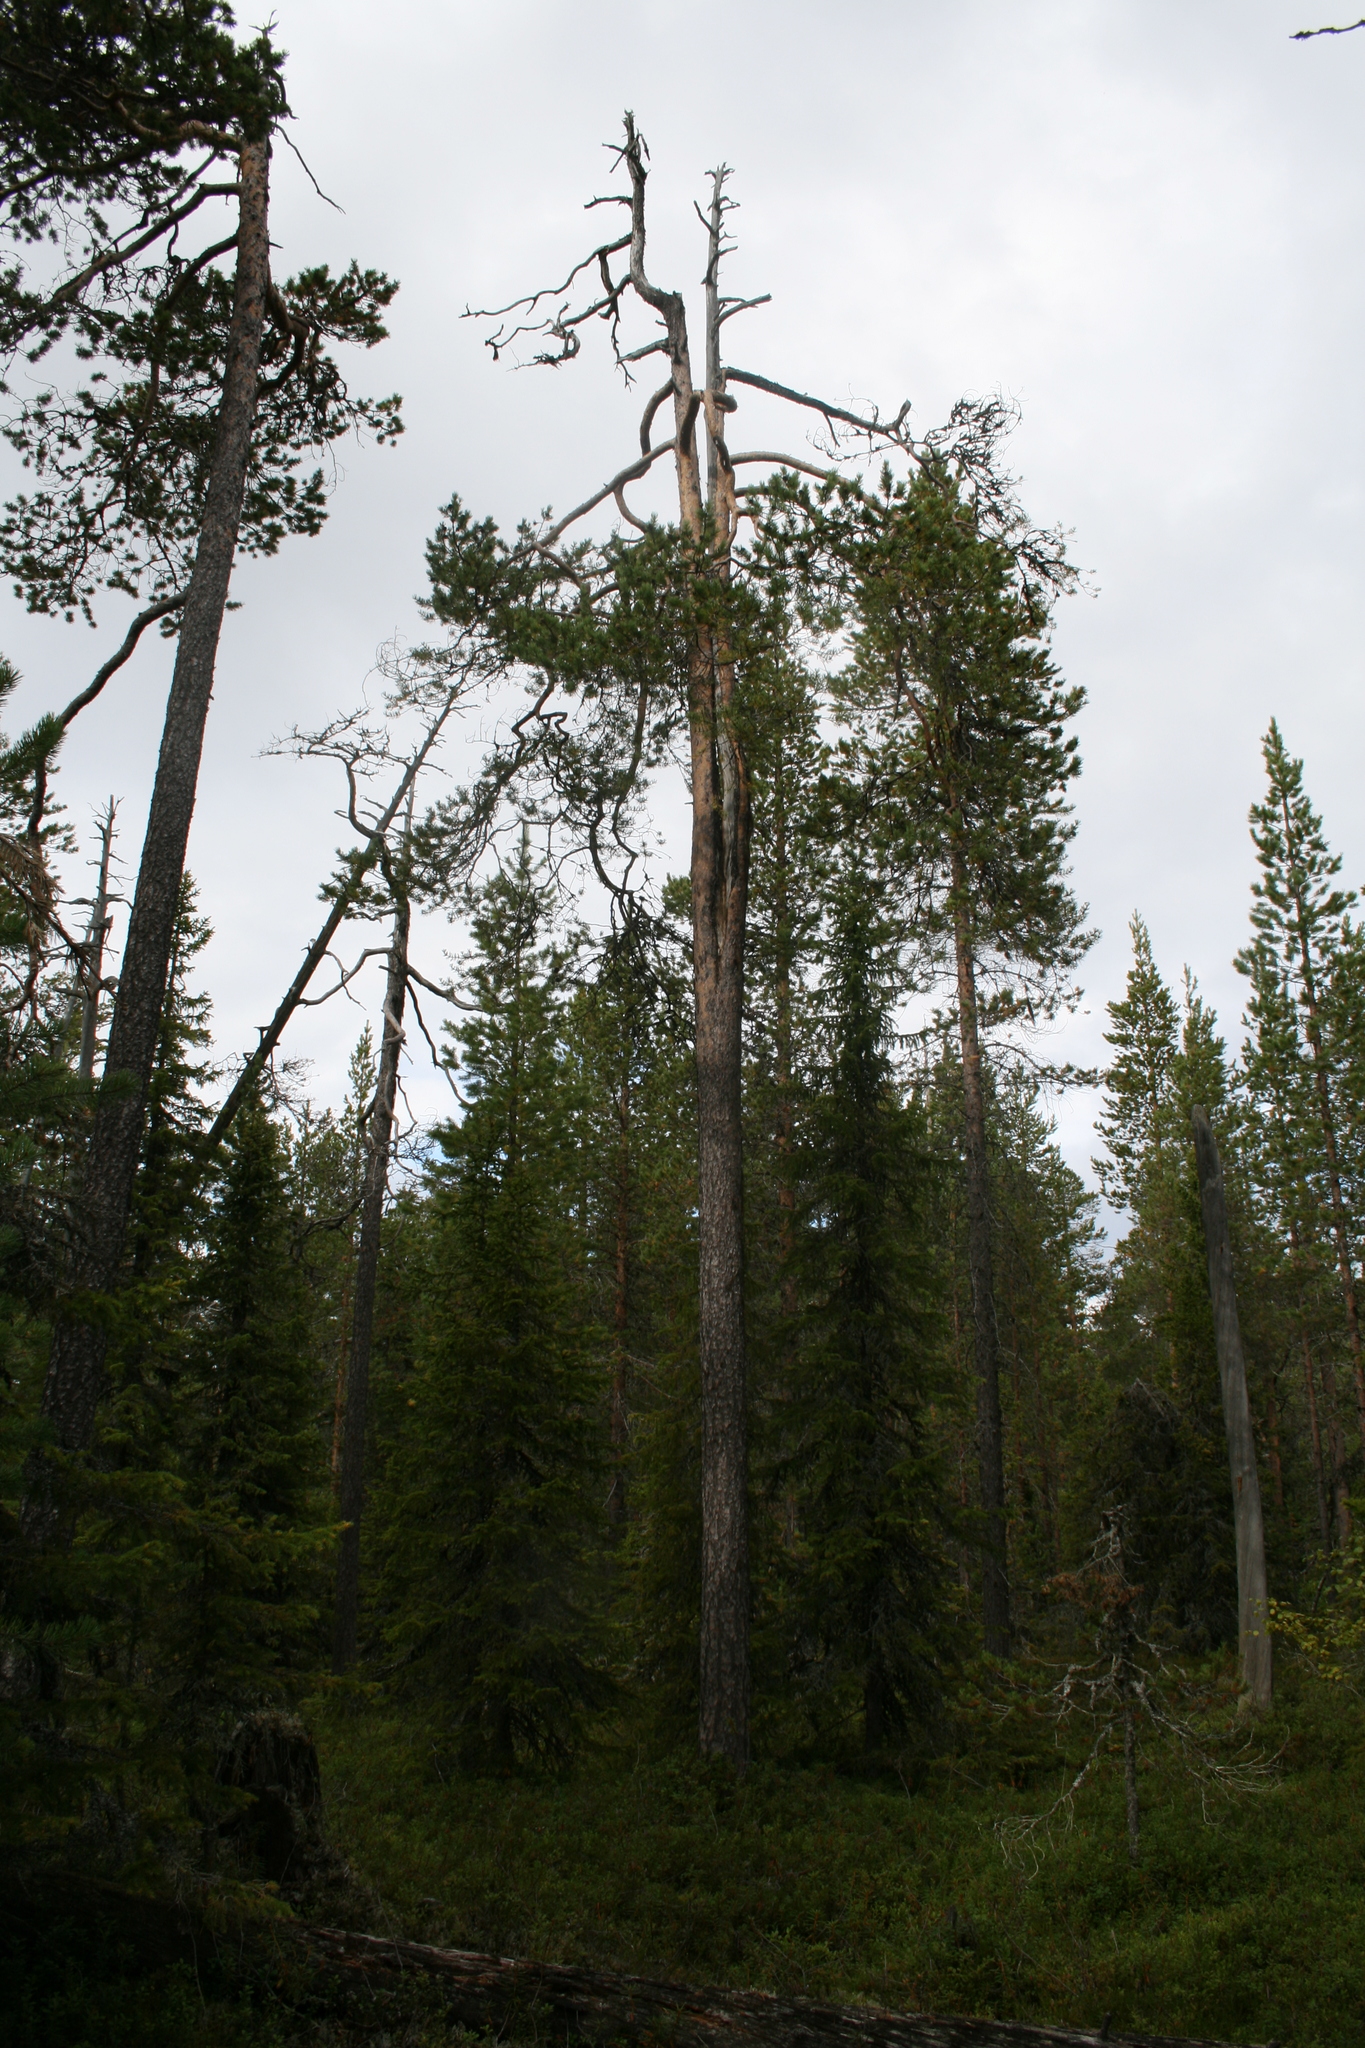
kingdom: Plantae
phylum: Tracheophyta
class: Pinopsida
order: Pinales
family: Pinaceae
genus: Pinus
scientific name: Pinus sylvestris
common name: Scots pine
